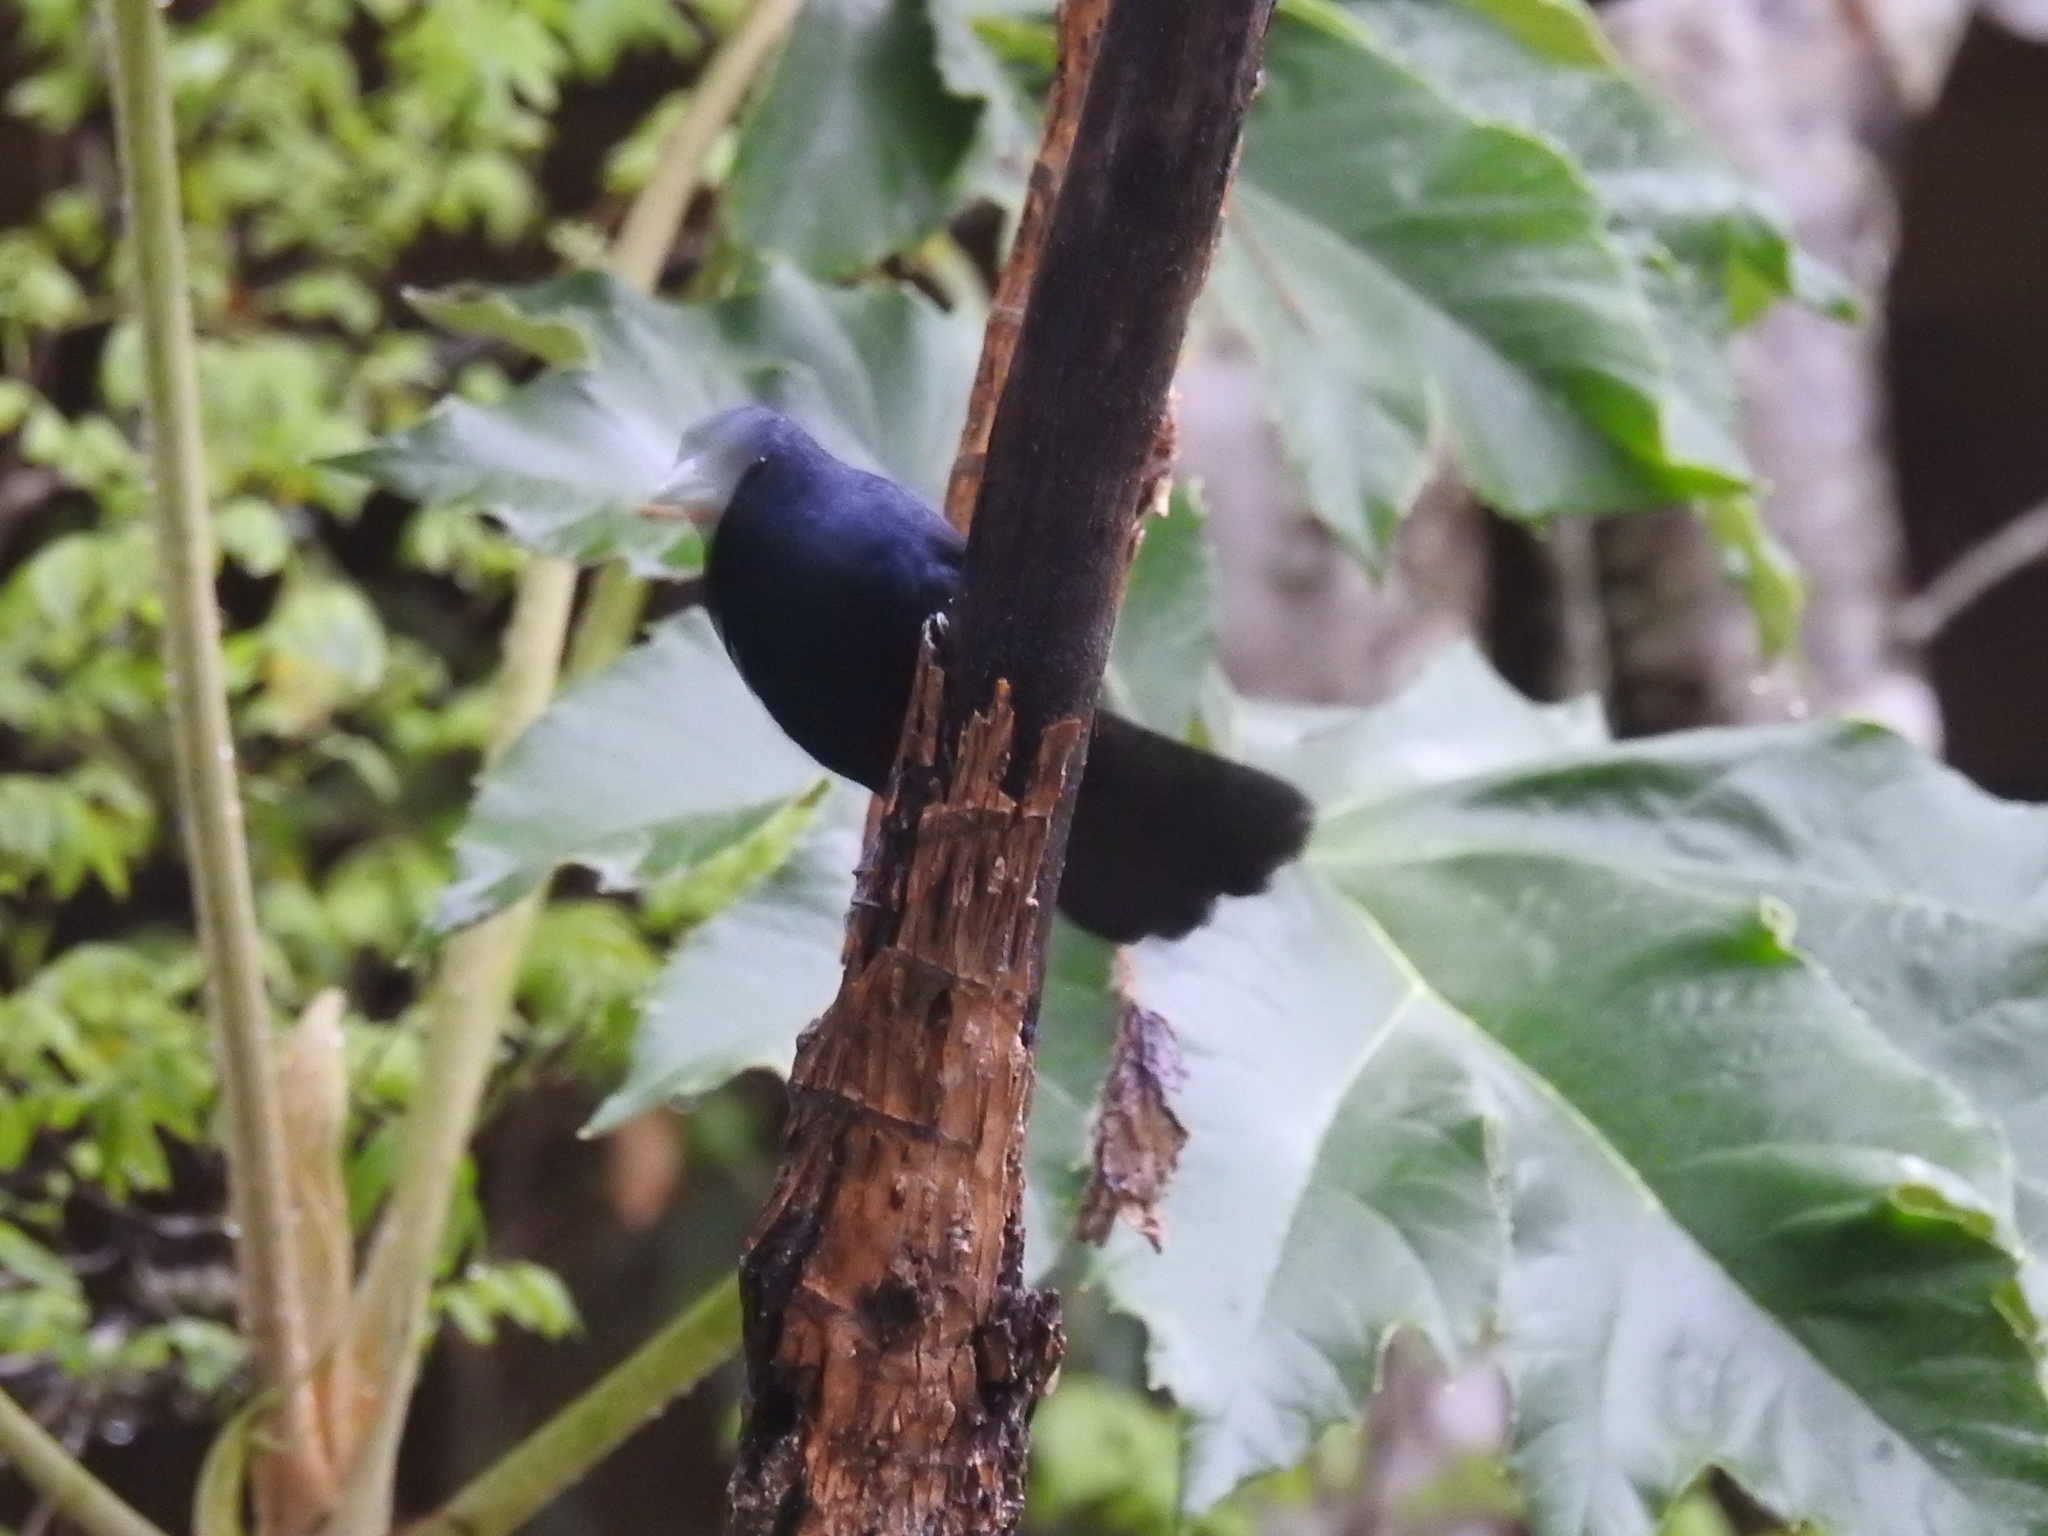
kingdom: Animalia
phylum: Chordata
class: Aves
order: Passeriformes
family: Thraupidae
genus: Tachyphonus
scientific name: Tachyphonus coronatus
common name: Ruby-crowned tanager
